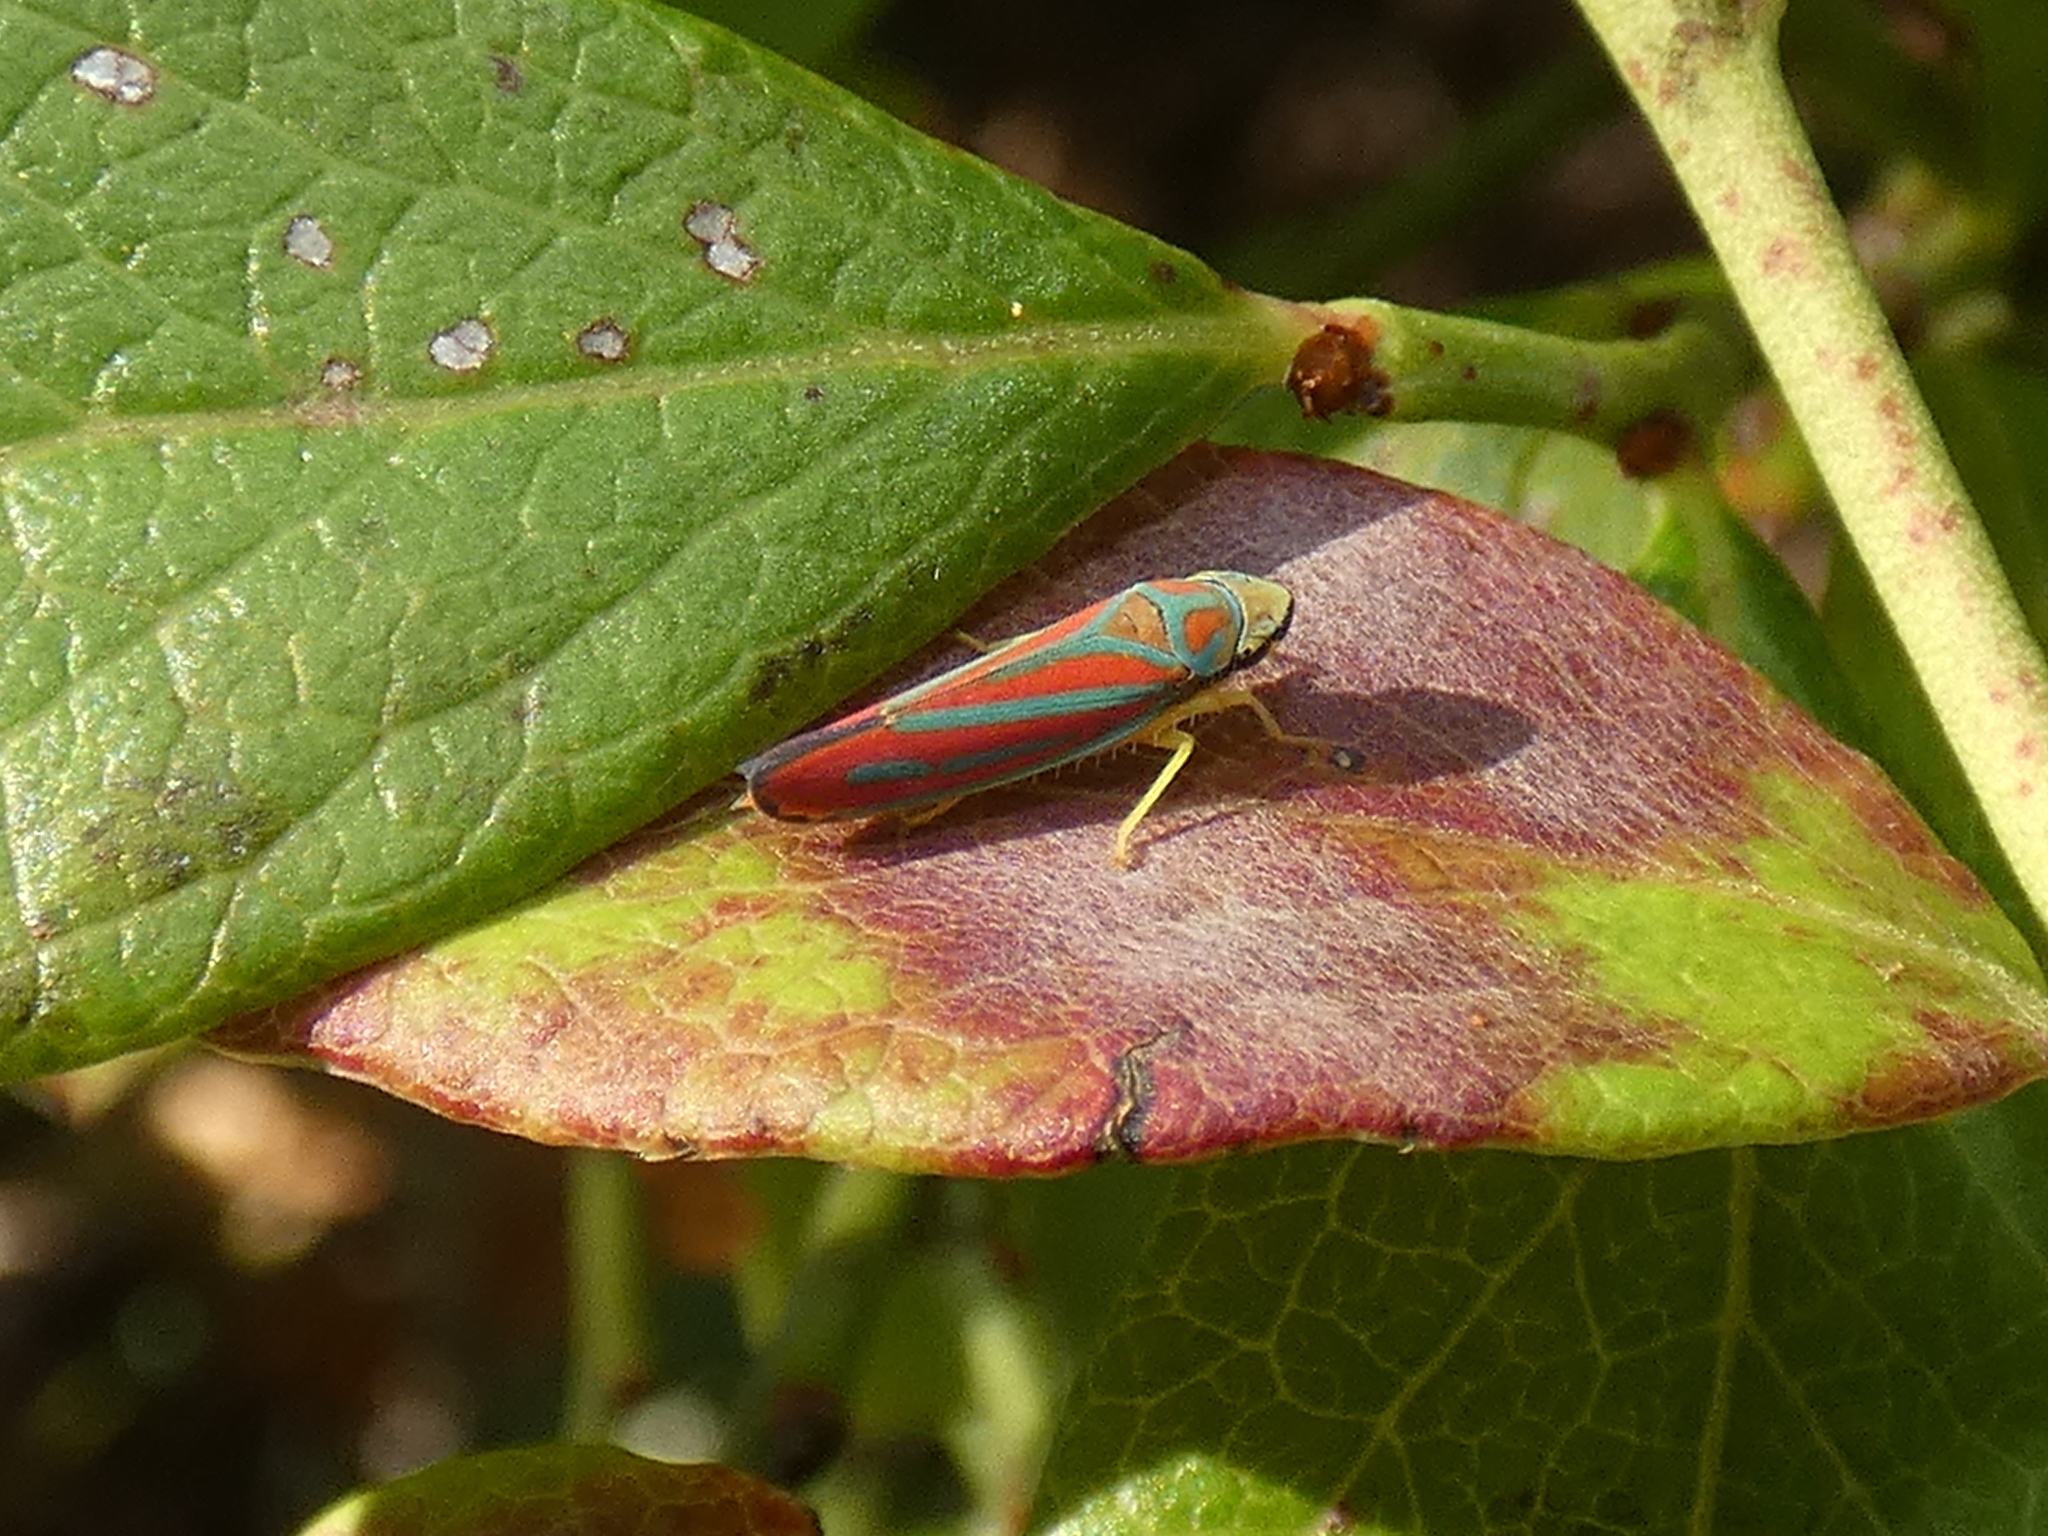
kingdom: Animalia
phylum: Arthropoda
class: Insecta
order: Hemiptera
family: Cicadellidae
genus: Graphocephala
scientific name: Graphocephala coccinea
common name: Candy-striped leafhopper
